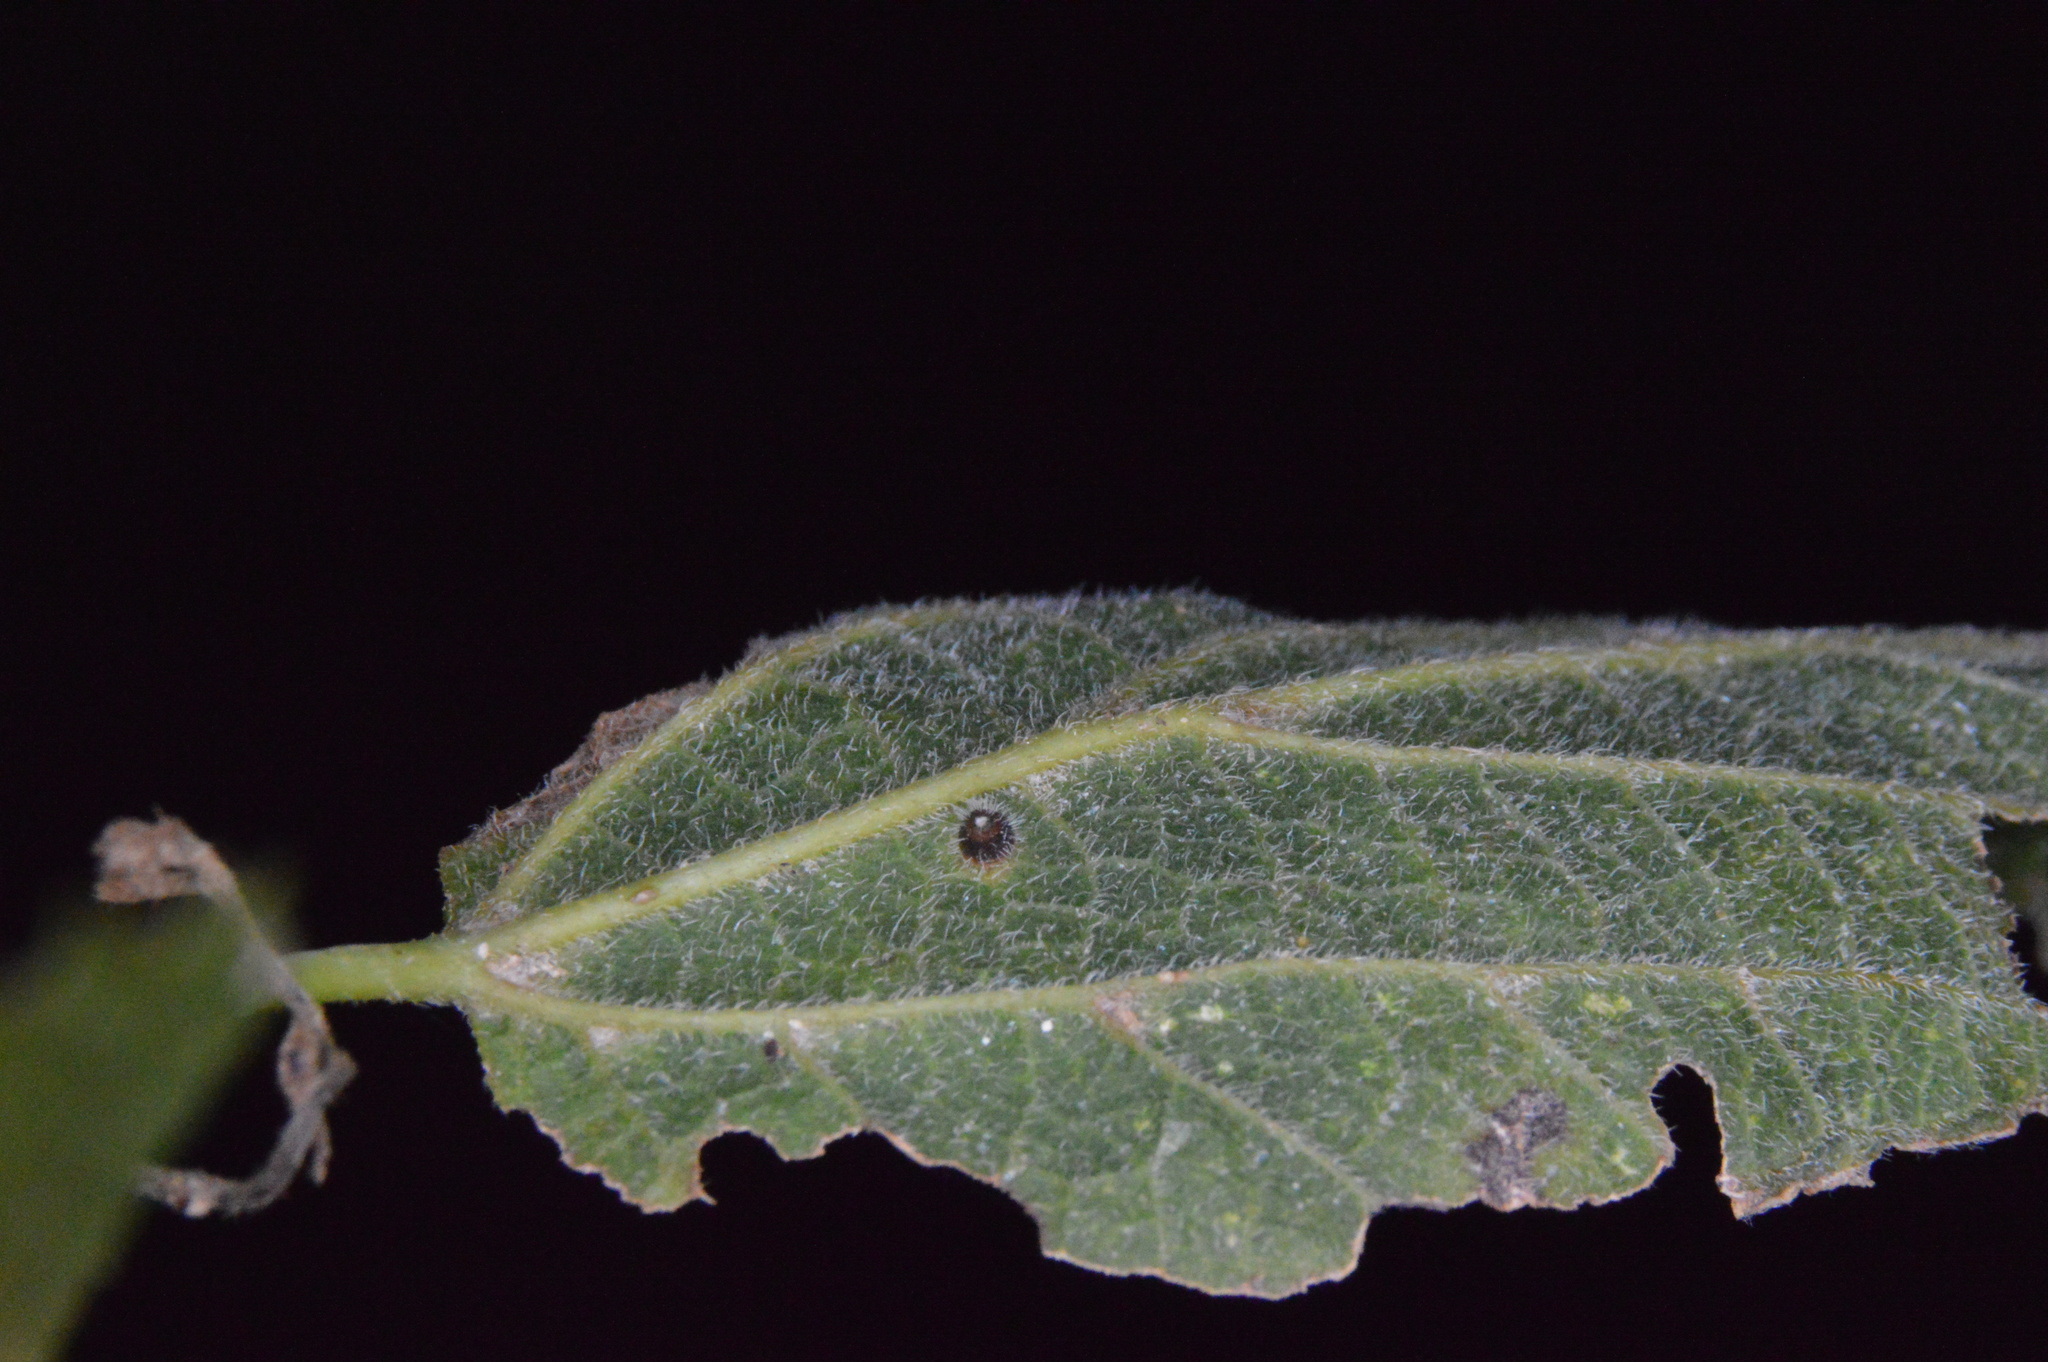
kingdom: Animalia
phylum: Arthropoda
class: Insecta
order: Diptera
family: Cecidomyiidae
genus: Celticecis
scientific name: Celticecis cupiformis
